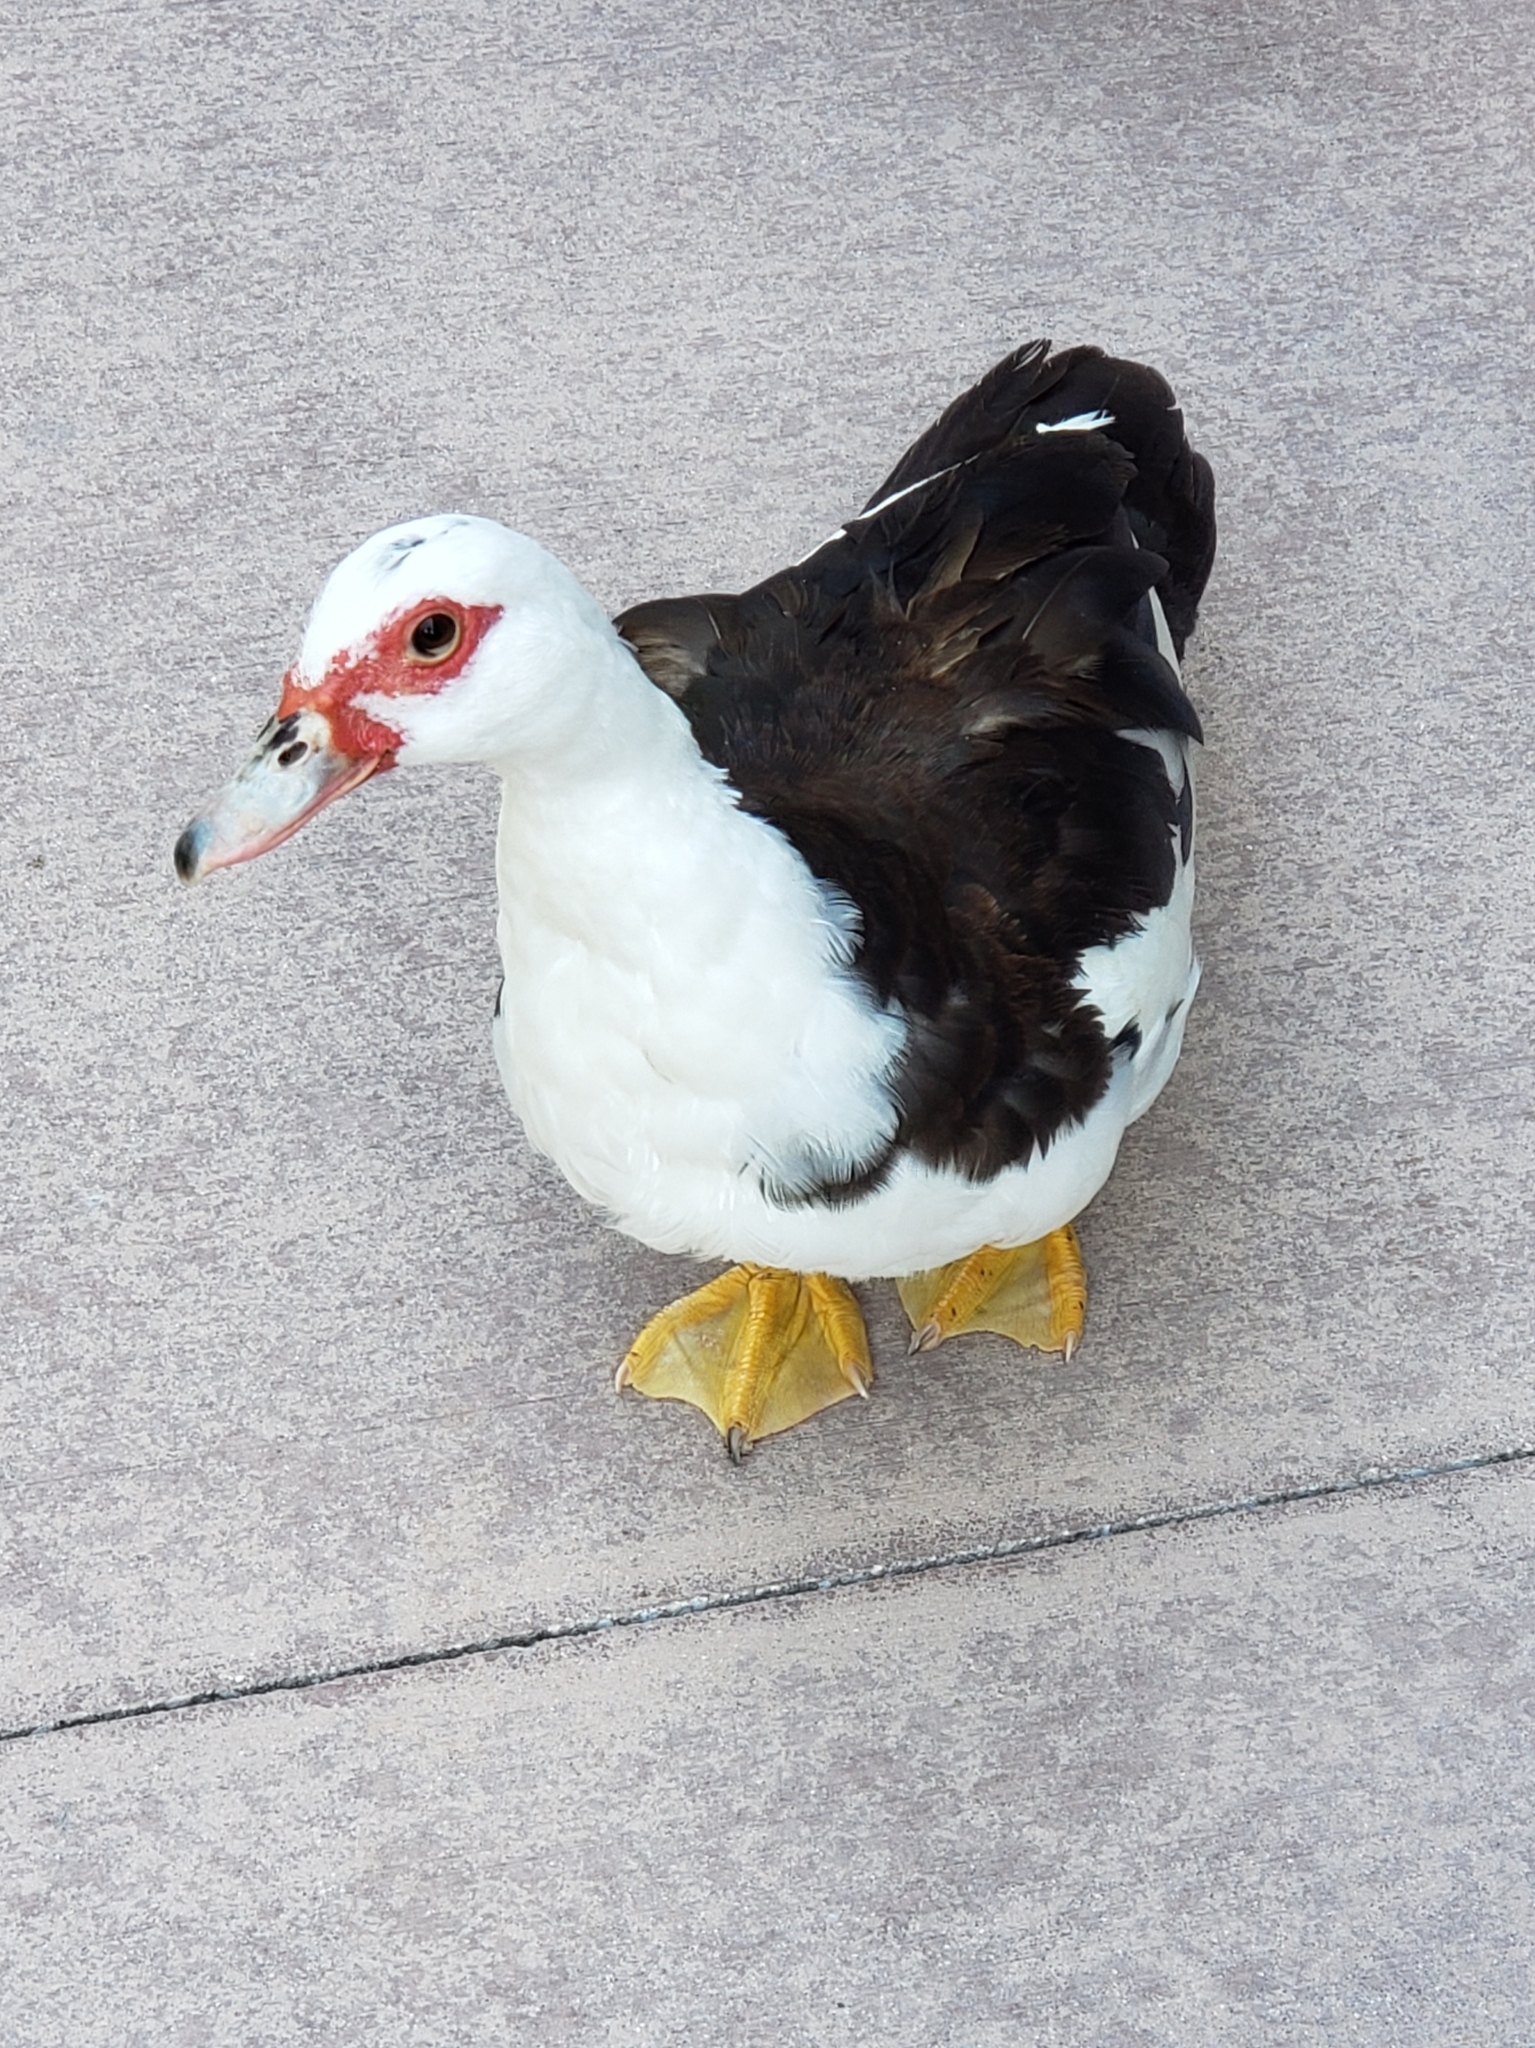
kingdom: Animalia
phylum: Chordata
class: Aves
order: Anseriformes
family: Anatidae
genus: Cairina
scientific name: Cairina moschata
